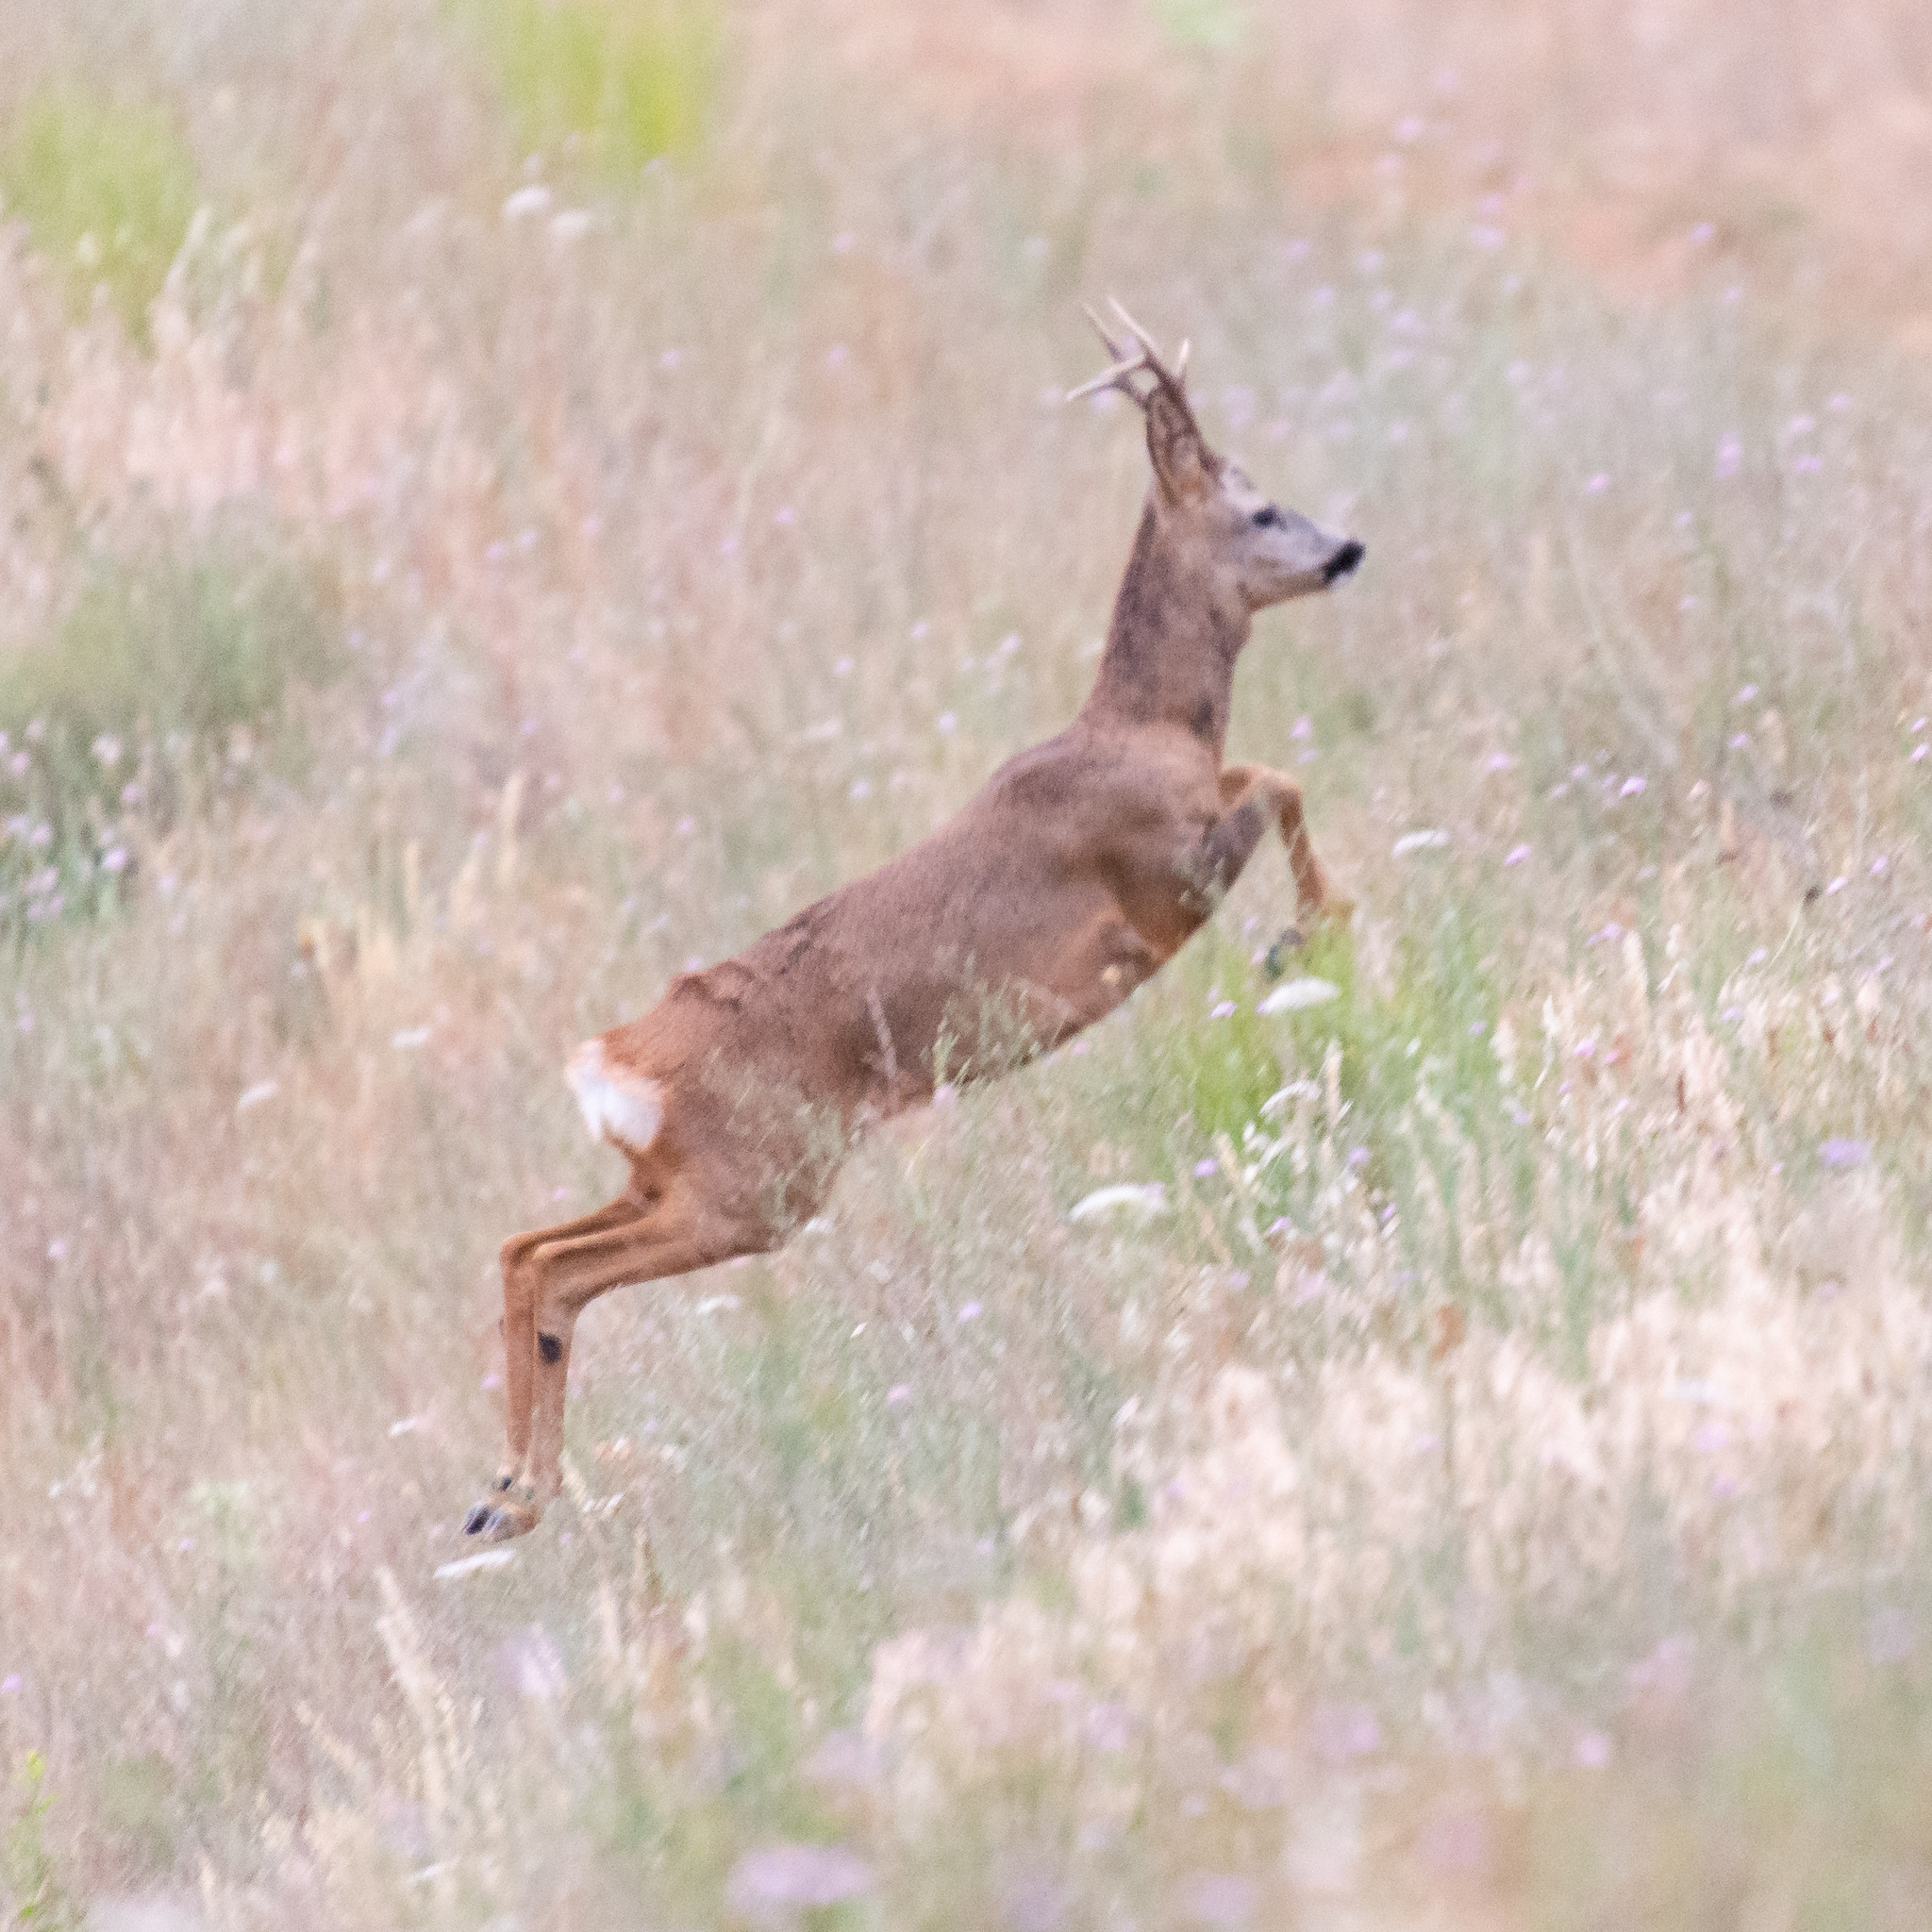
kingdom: Animalia
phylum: Chordata
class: Mammalia
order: Artiodactyla
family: Cervidae
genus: Capreolus
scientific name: Capreolus capreolus
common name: Western roe deer
